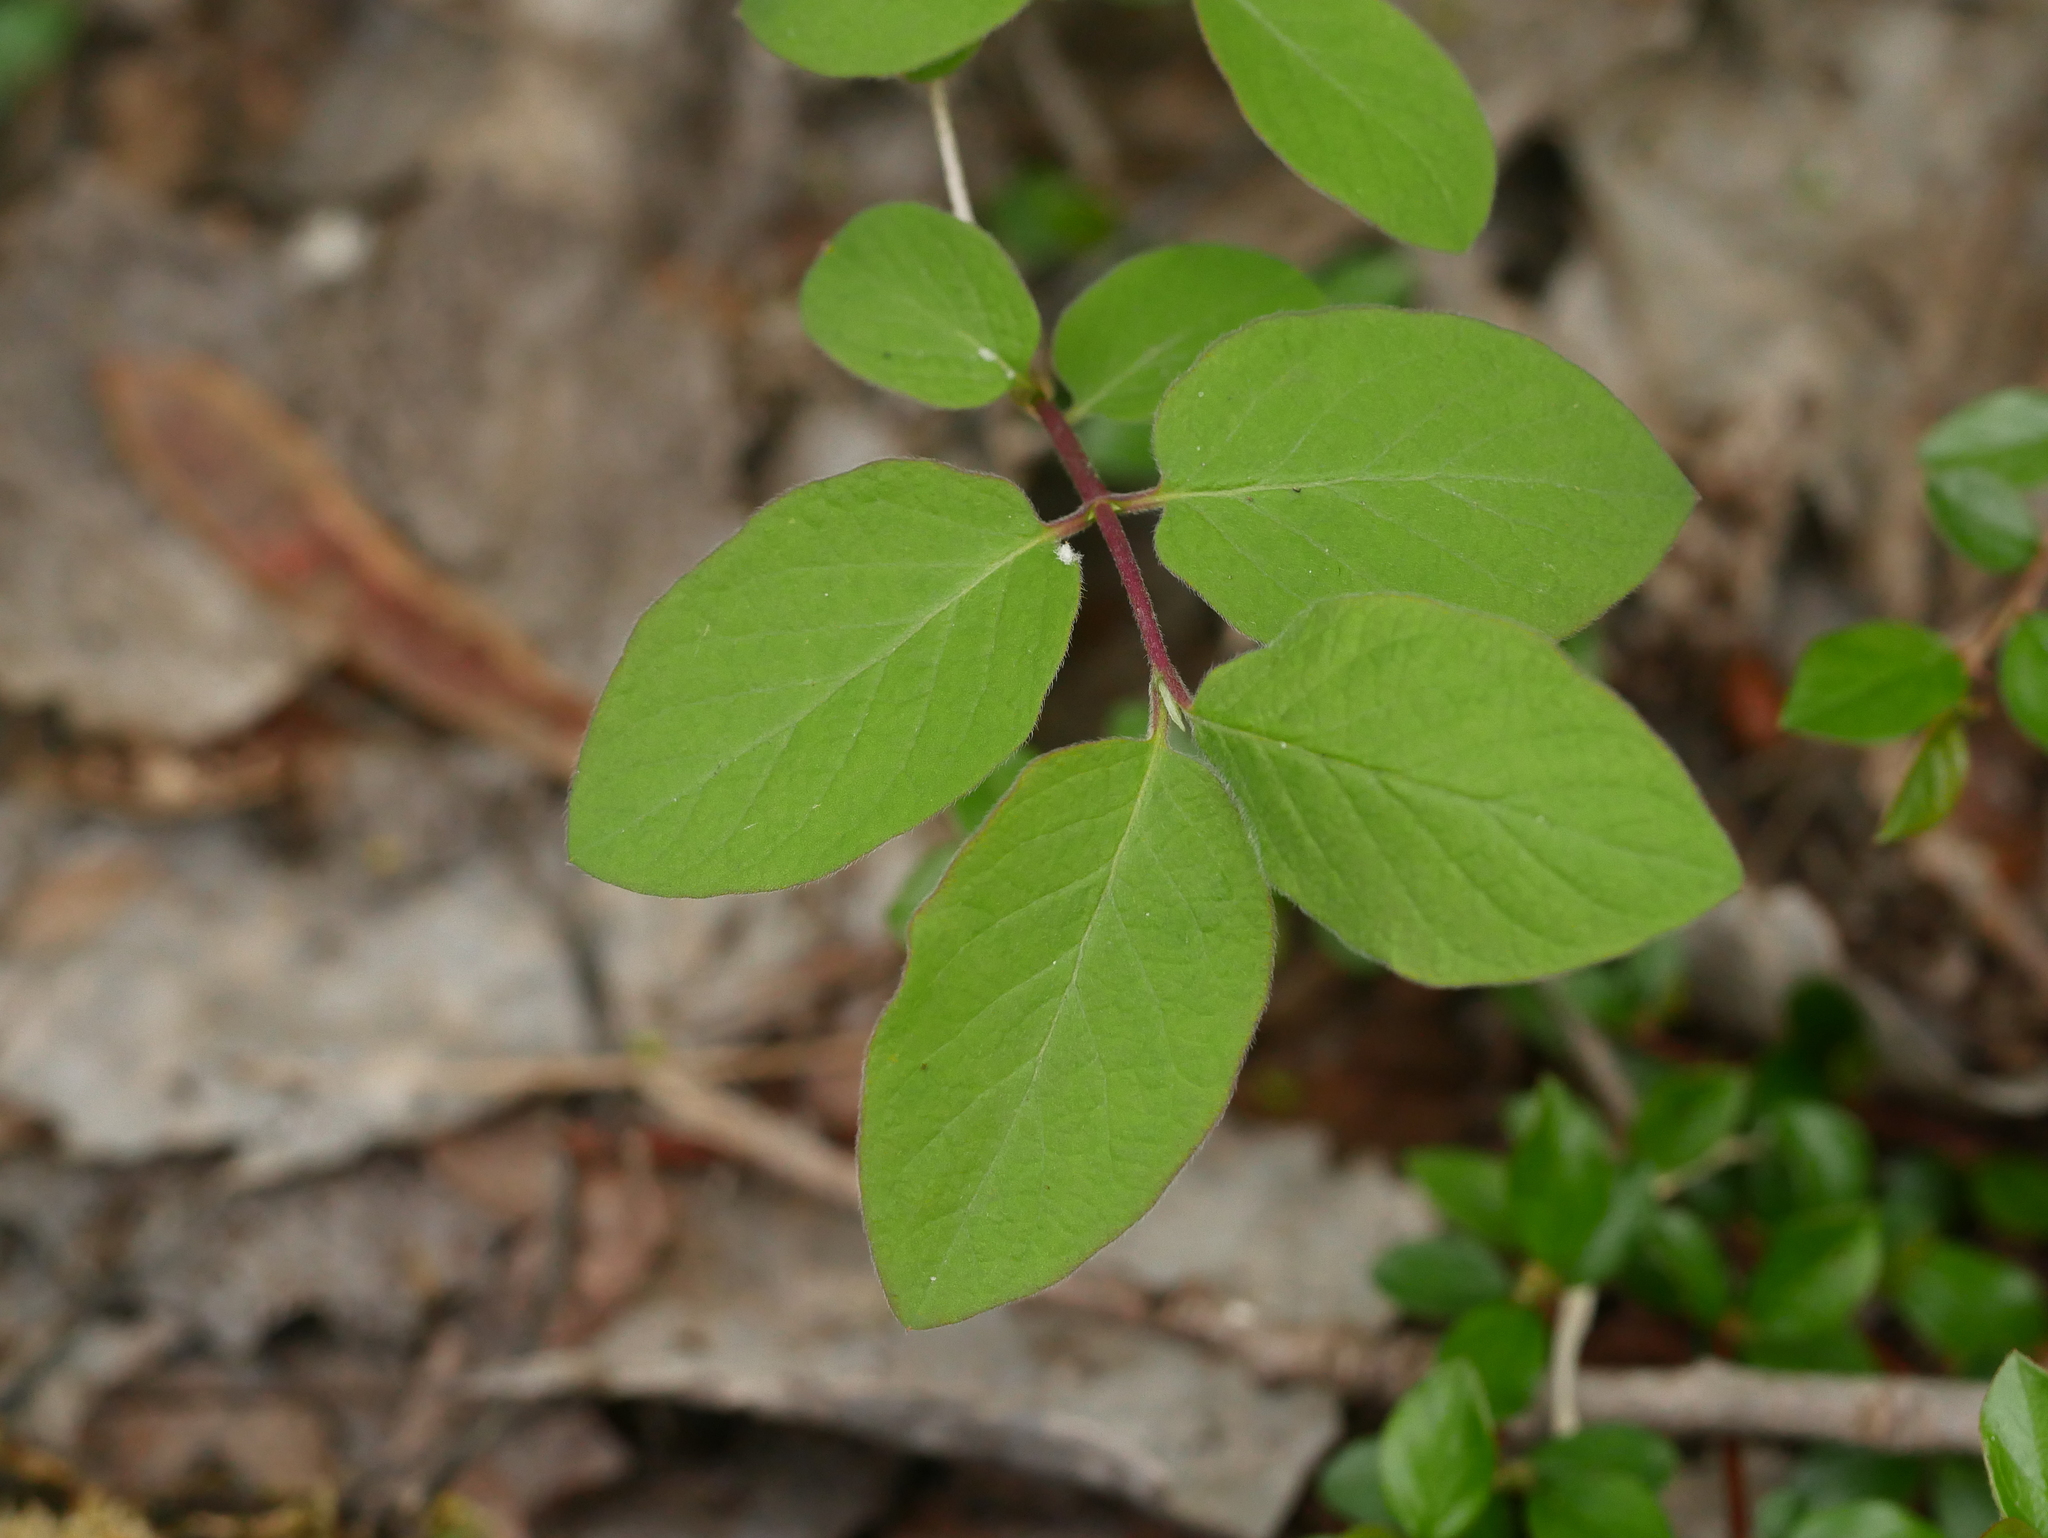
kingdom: Plantae
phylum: Tracheophyta
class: Magnoliopsida
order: Dipsacales
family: Caprifoliaceae
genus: Lonicera
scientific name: Lonicera xylosteum
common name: Fly honeysuckle
